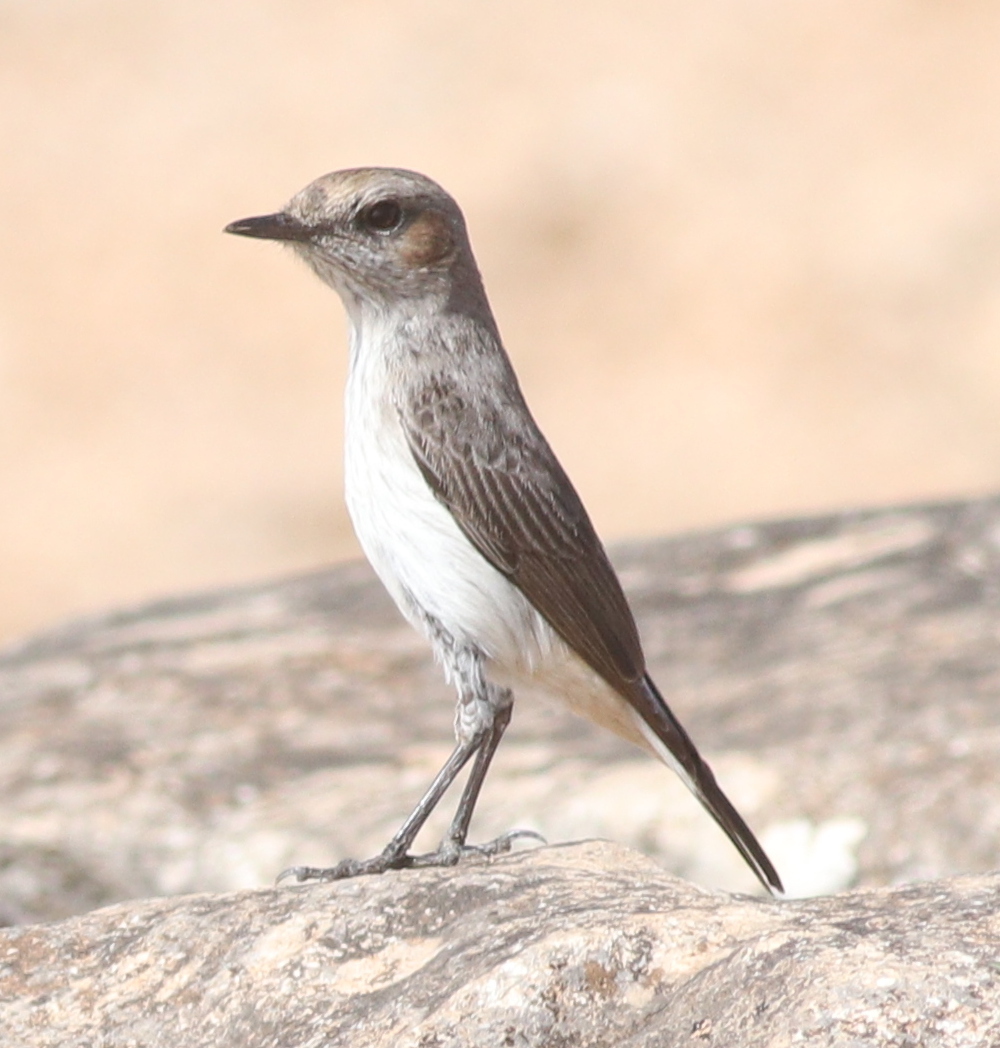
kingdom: Animalia
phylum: Chordata
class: Aves
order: Passeriformes
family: Muscicapidae
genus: Oenanthe
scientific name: Oenanthe lugentoides
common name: Arabian wheatear
